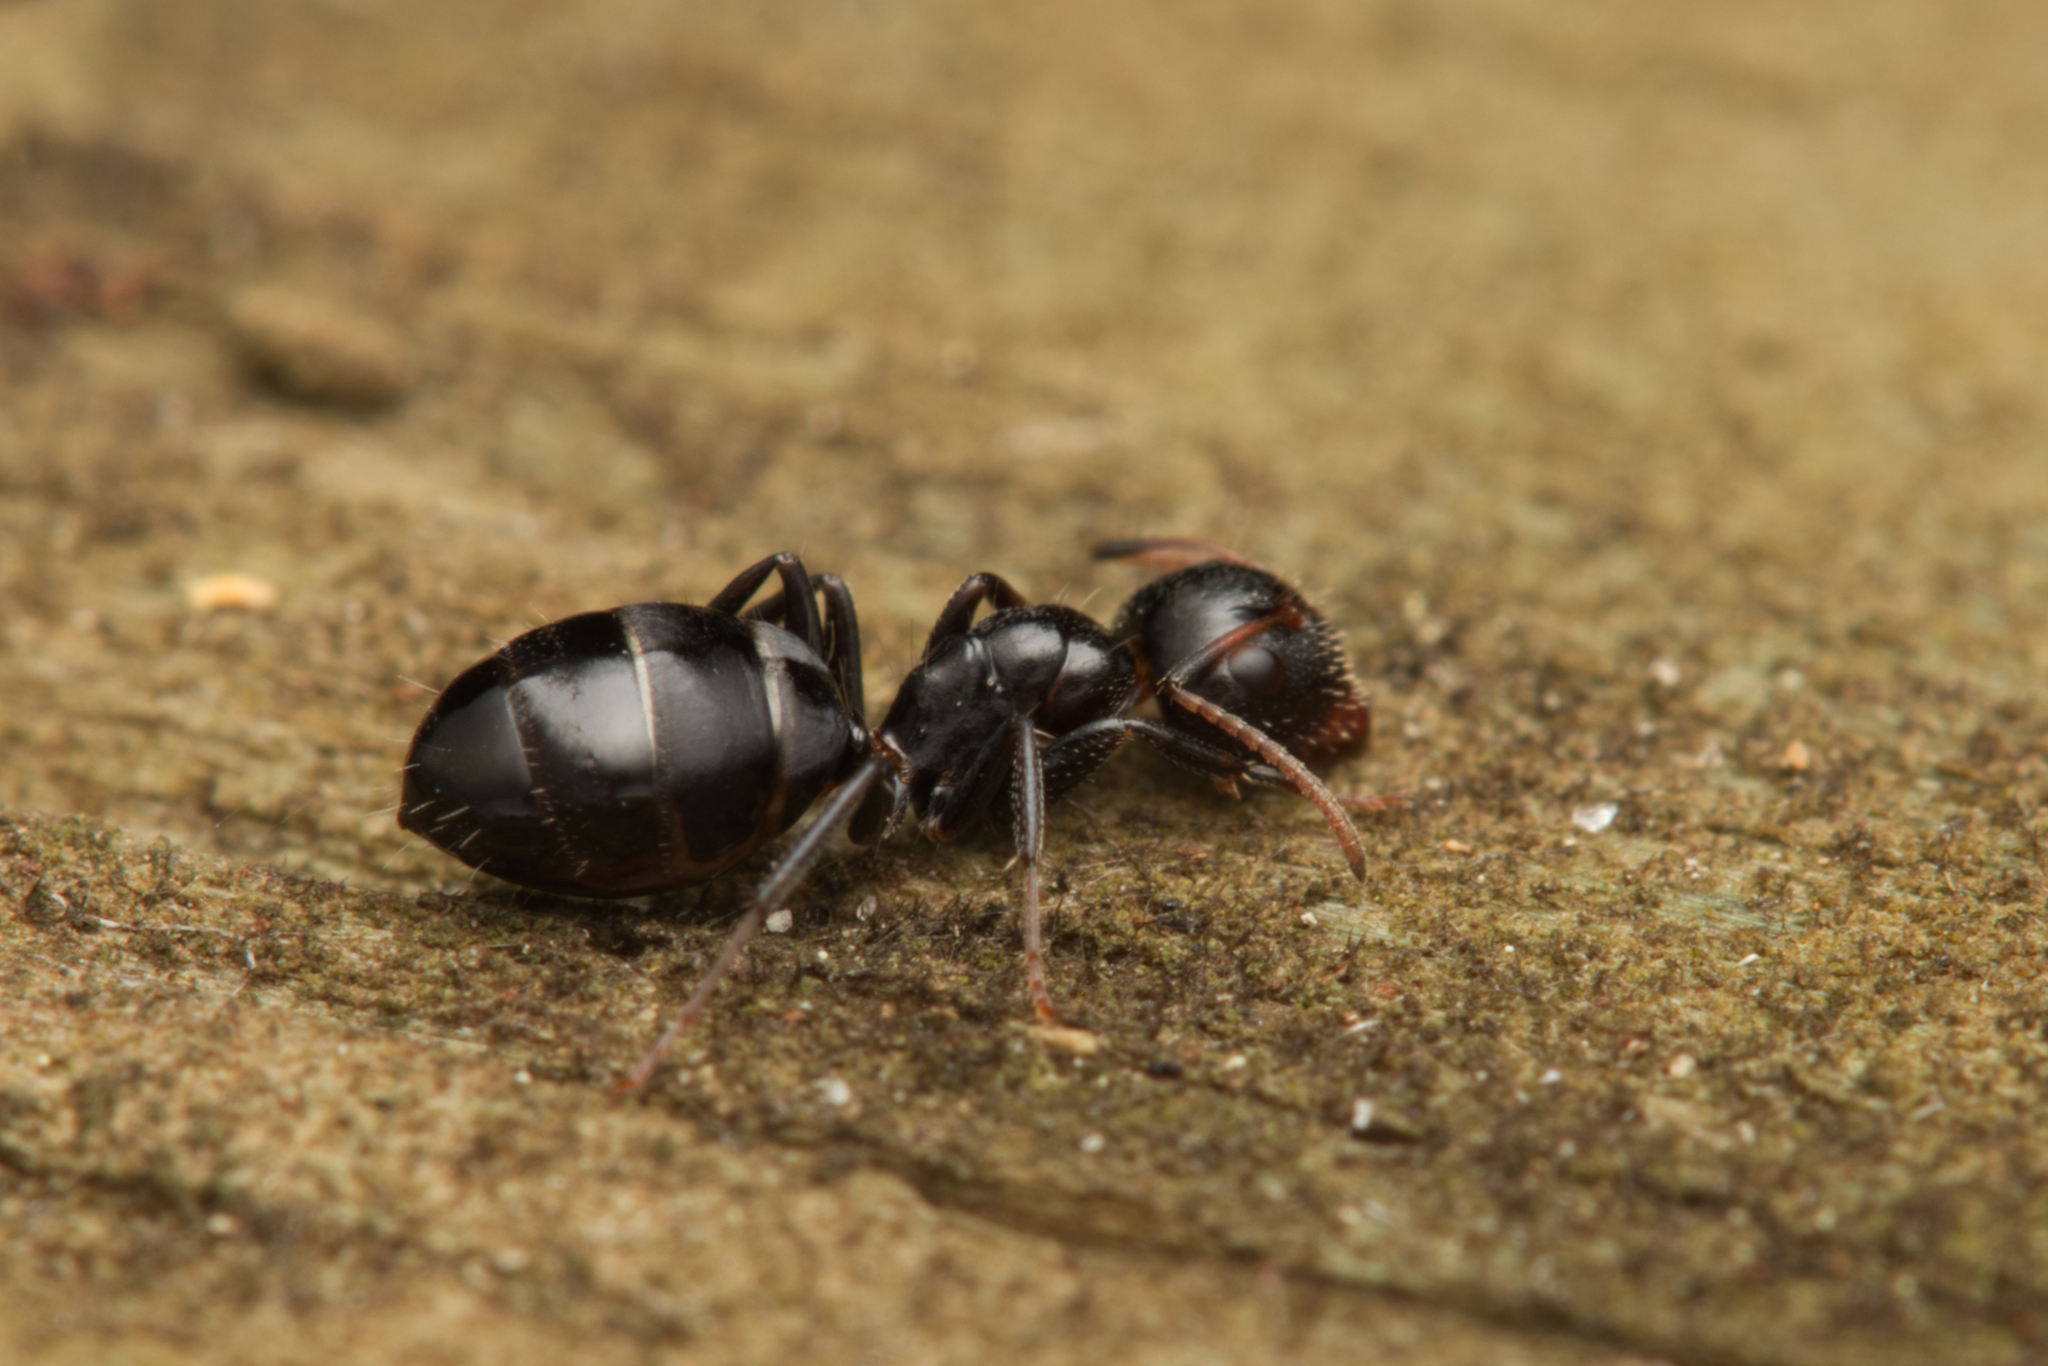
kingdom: Animalia
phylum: Arthropoda
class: Insecta
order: Hymenoptera
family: Formicidae
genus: Camponotus
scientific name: Camponotus mackayensis
